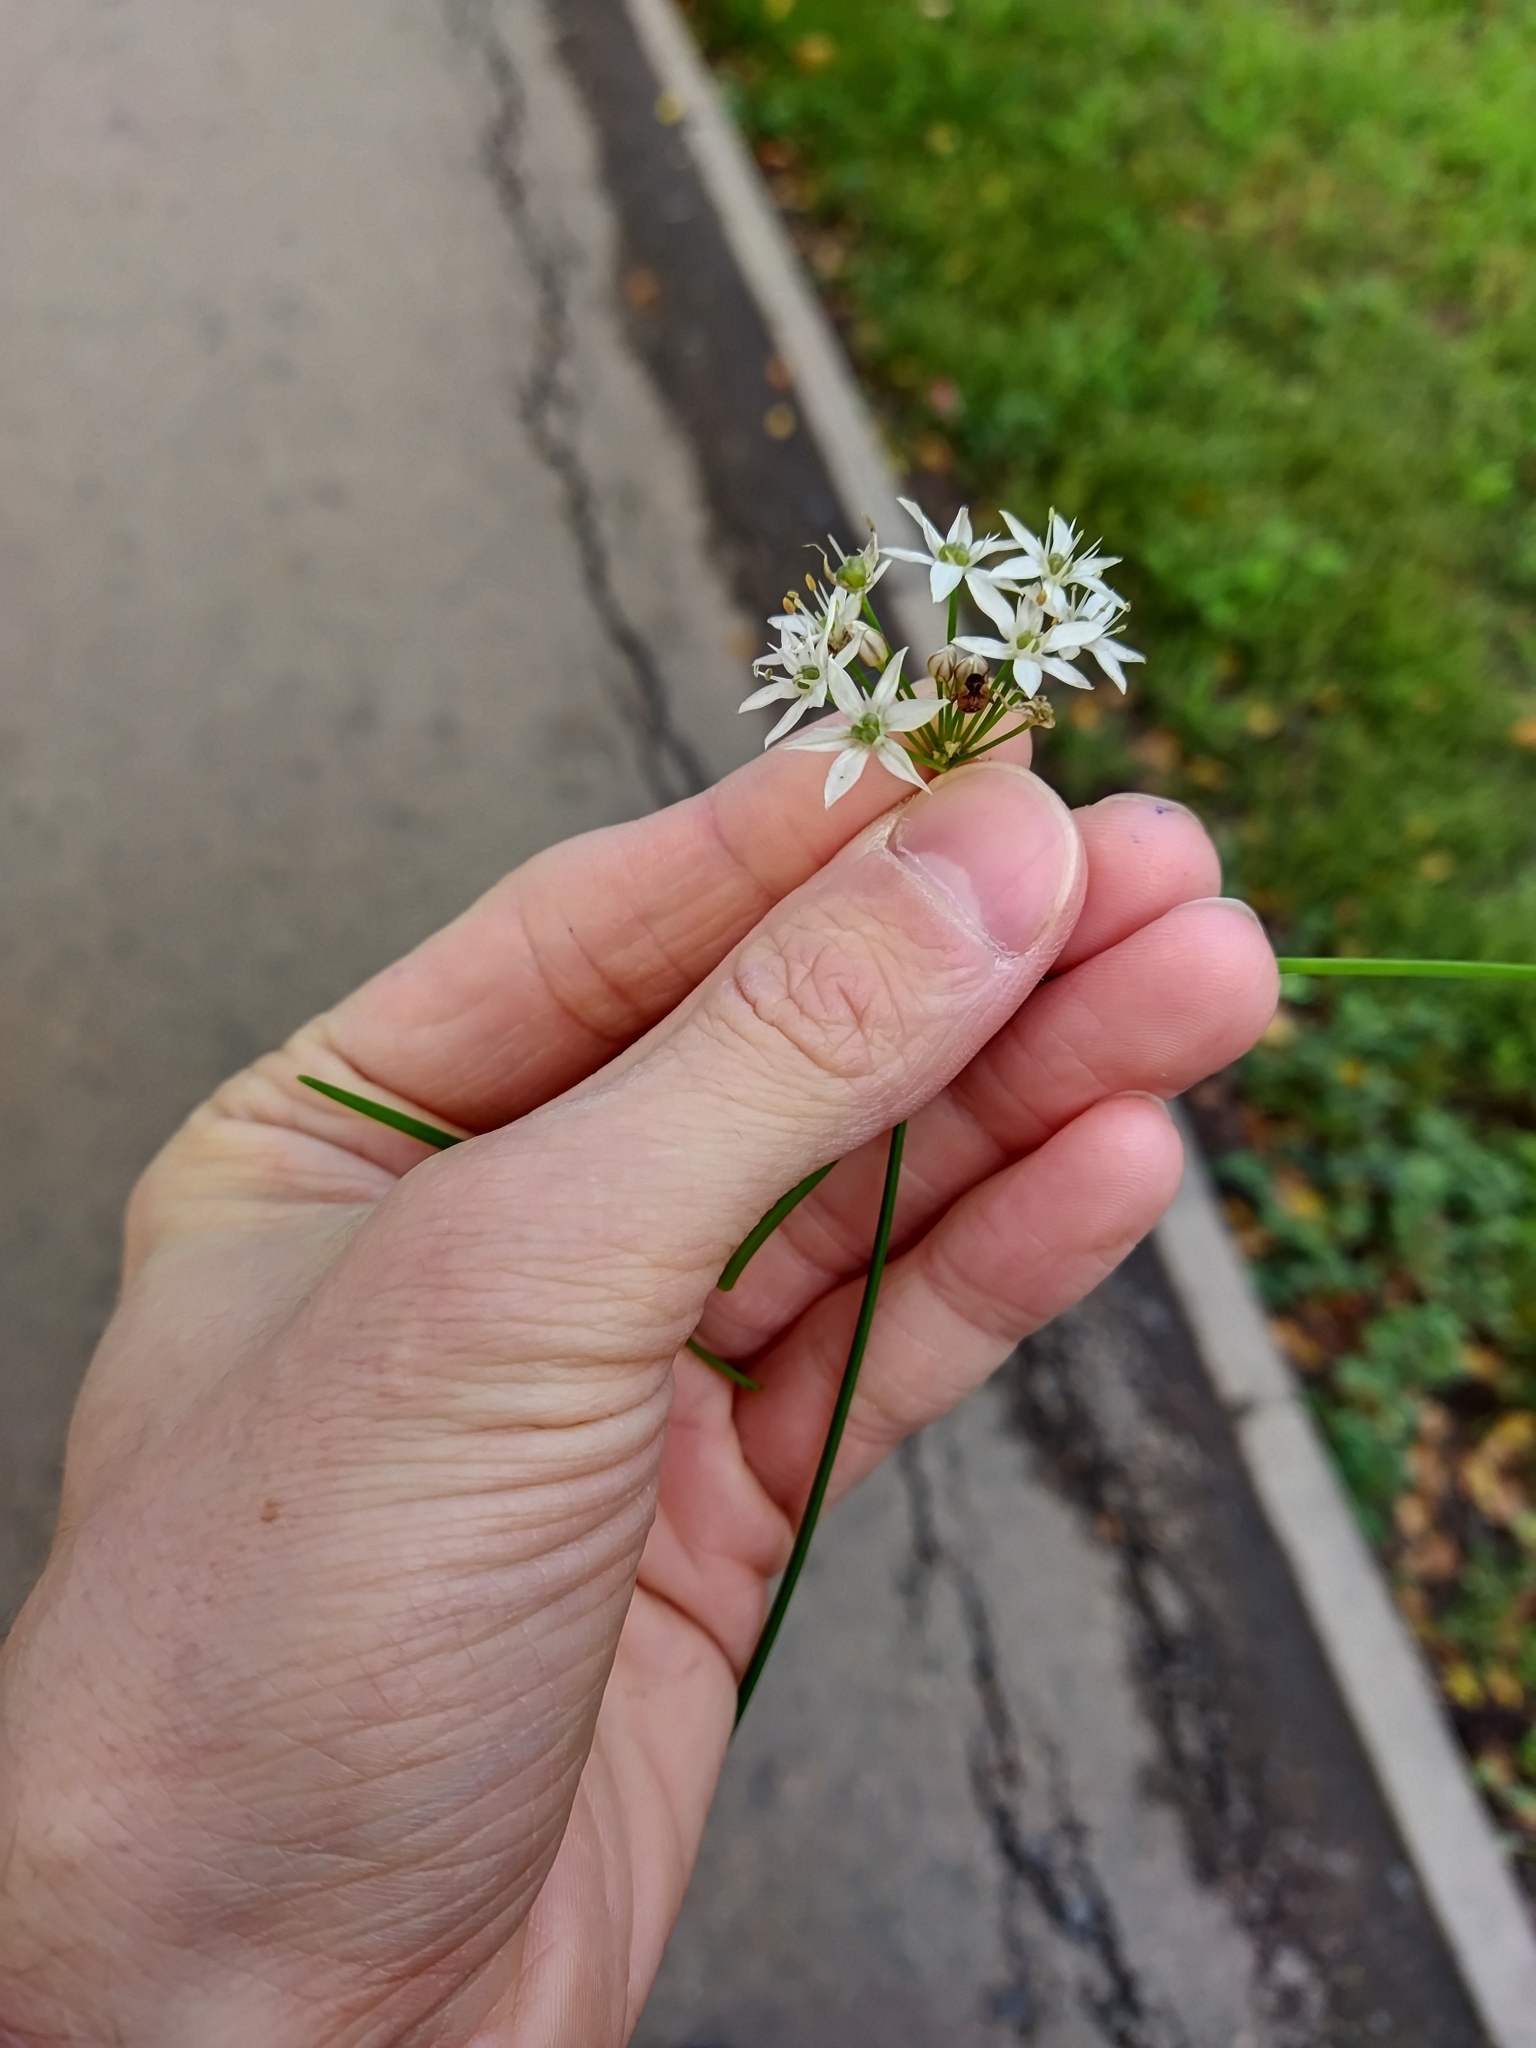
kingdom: Plantae
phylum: Tracheophyta
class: Liliopsida
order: Asparagales
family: Amaryllidaceae
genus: Allium
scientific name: Allium ramosum
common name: Fragrant garlic
